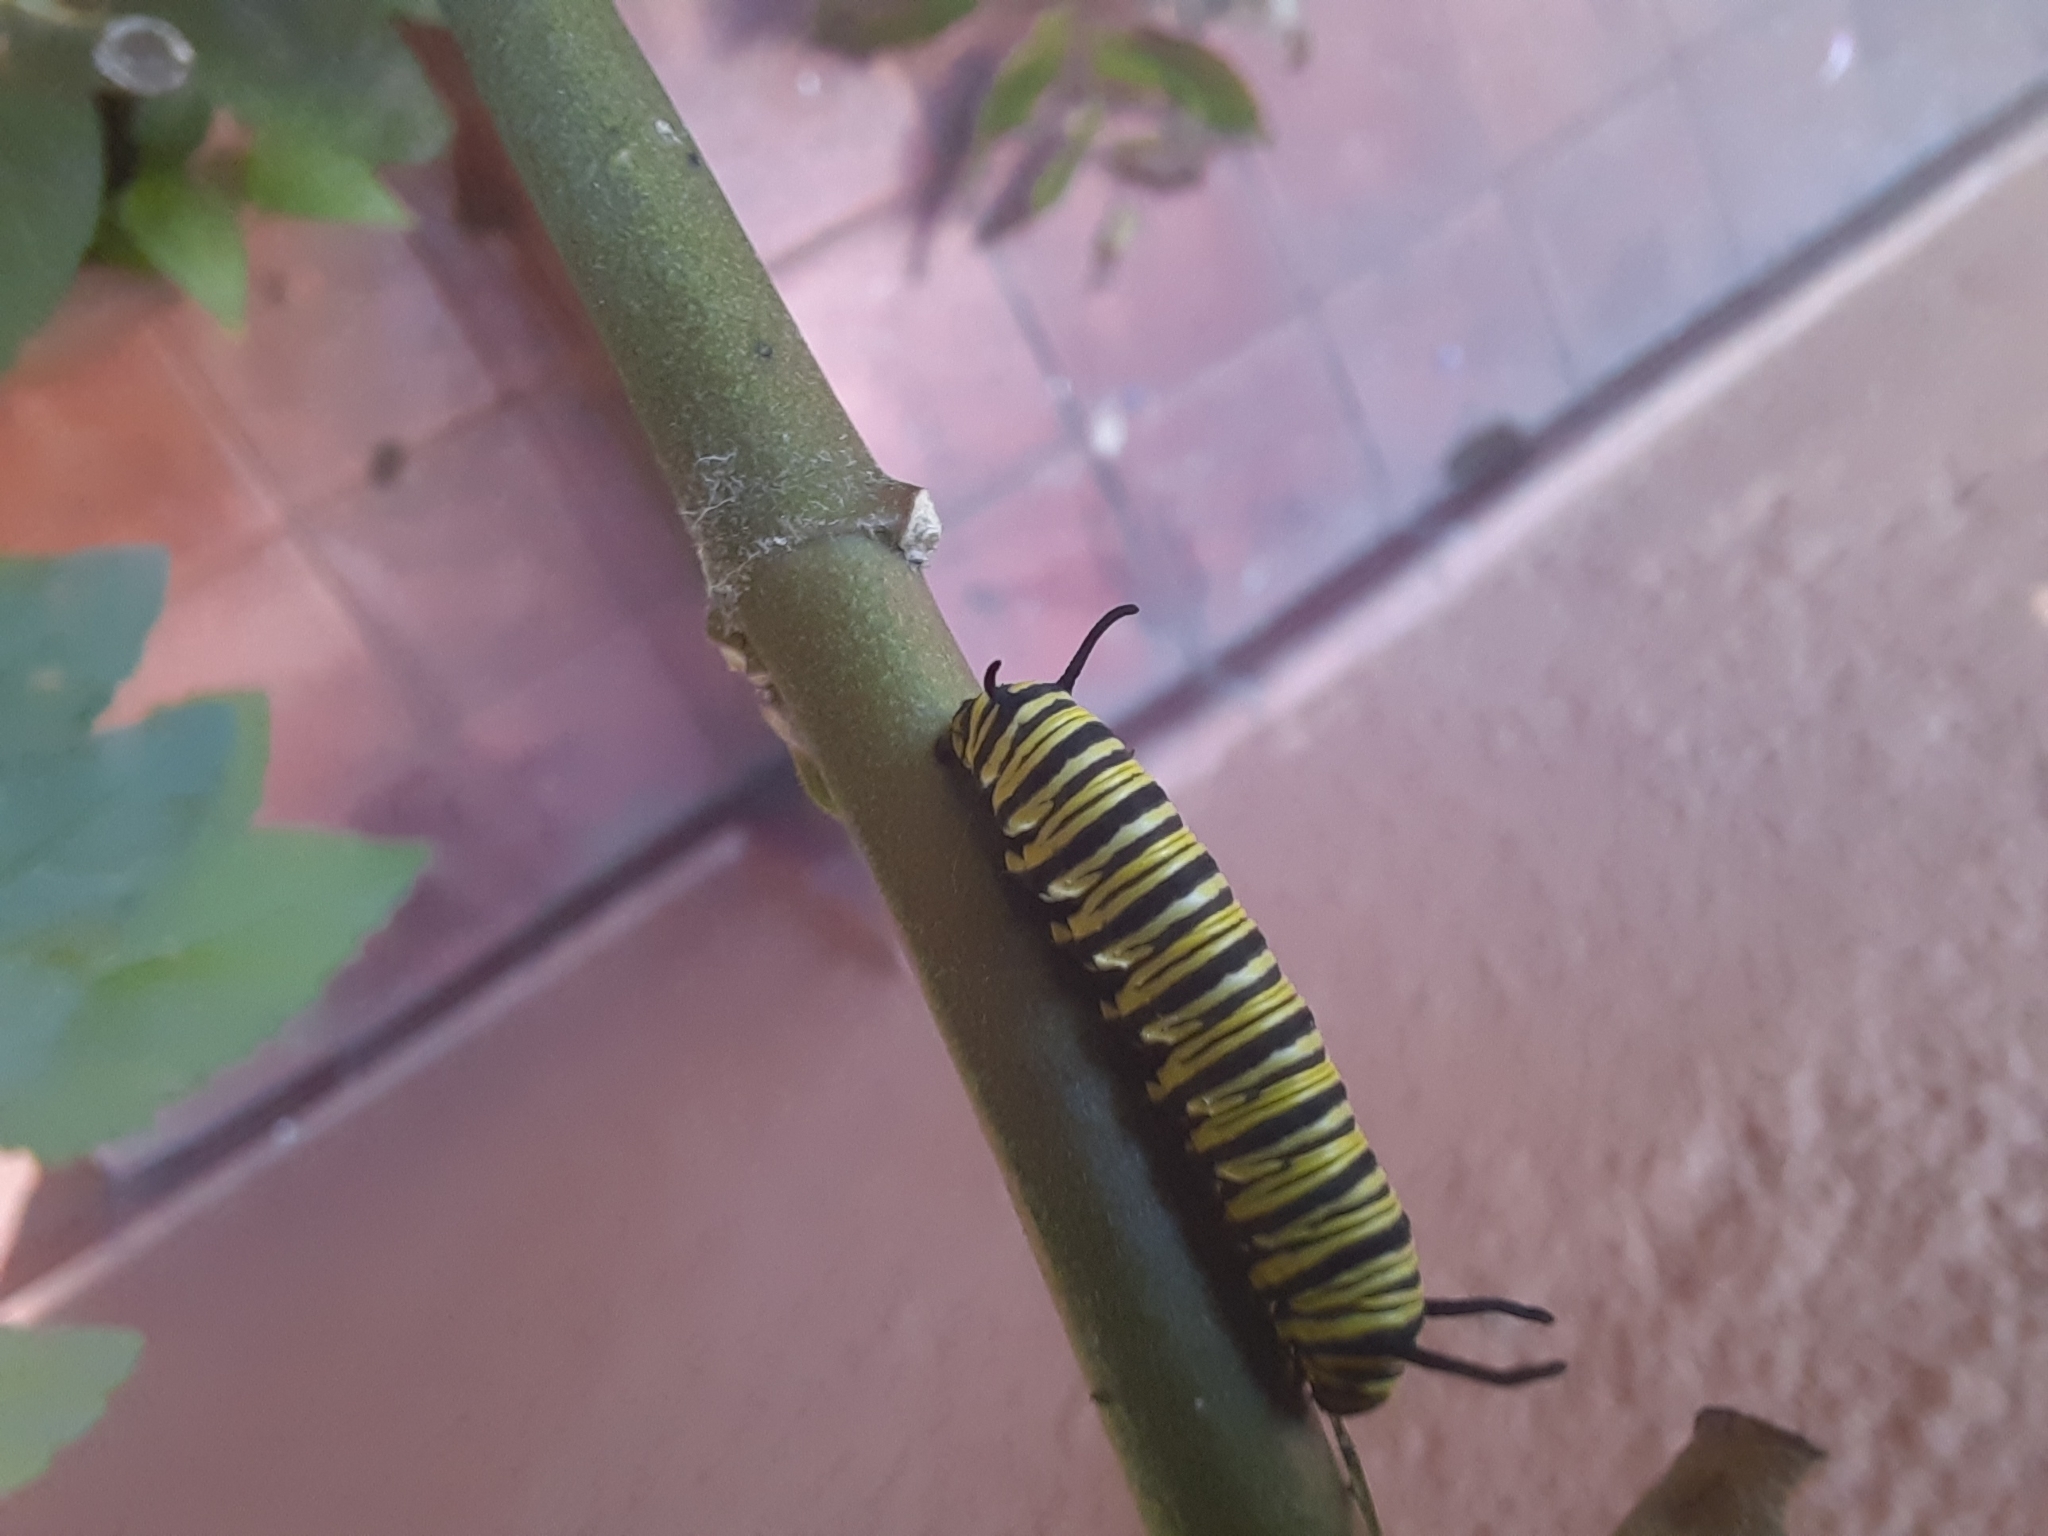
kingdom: Animalia
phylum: Arthropoda
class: Insecta
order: Lepidoptera
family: Nymphalidae
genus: Danaus
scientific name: Danaus erippus
